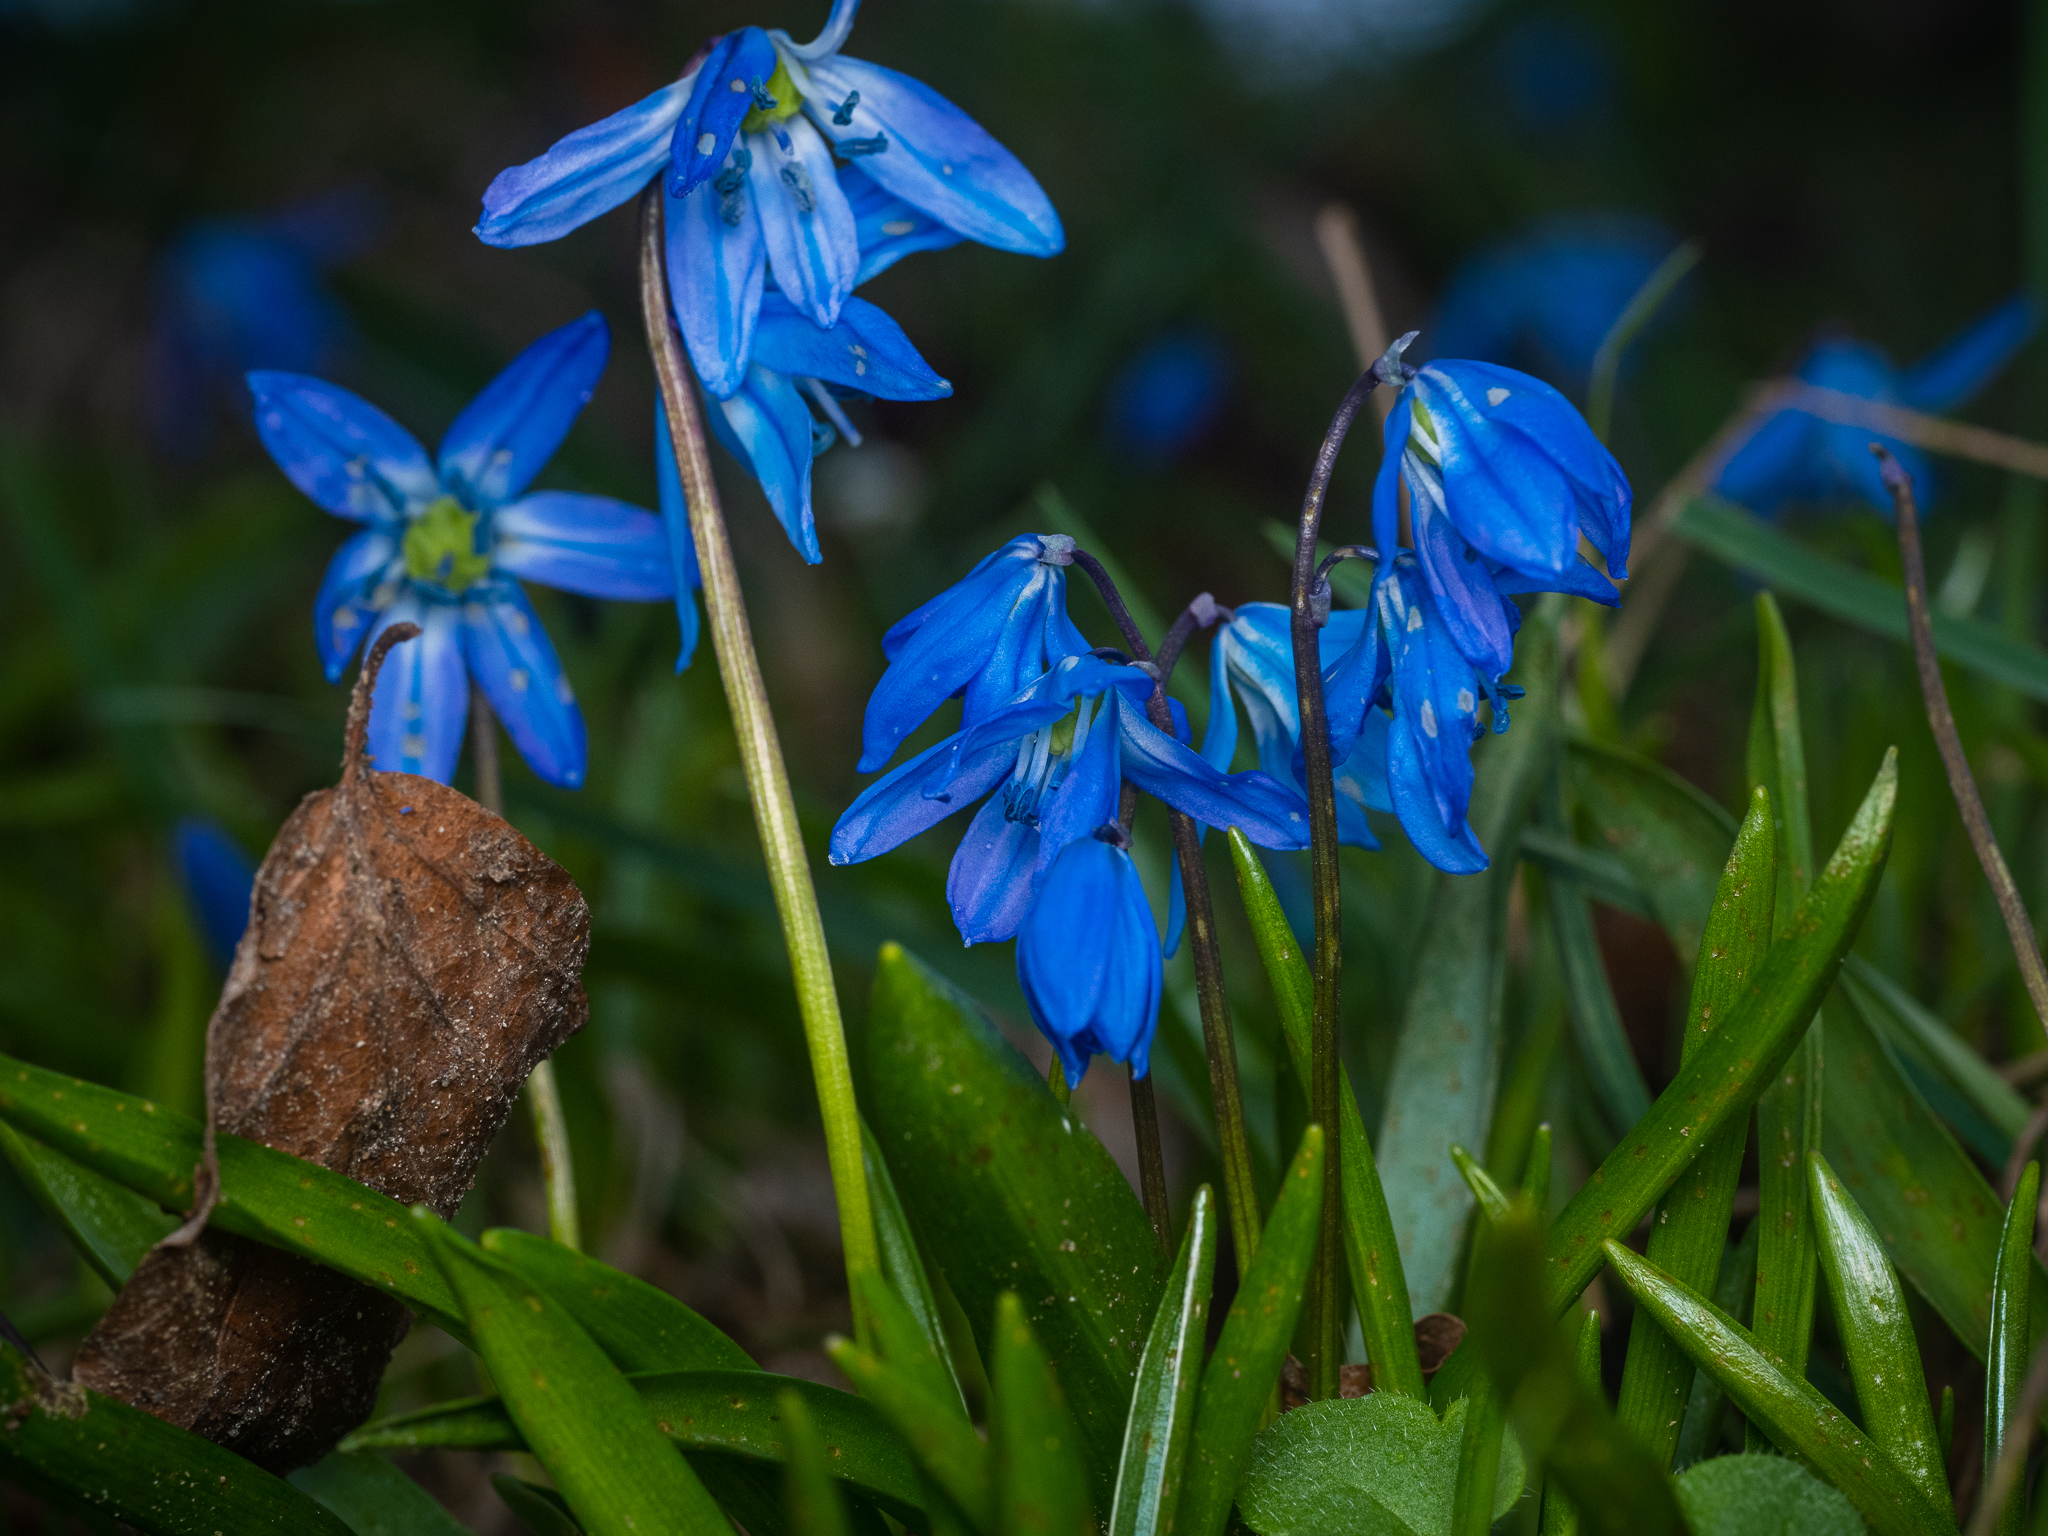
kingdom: Plantae
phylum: Tracheophyta
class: Liliopsida
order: Asparagales
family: Asparagaceae
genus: Scilla
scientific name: Scilla siberica
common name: Siberian squill
